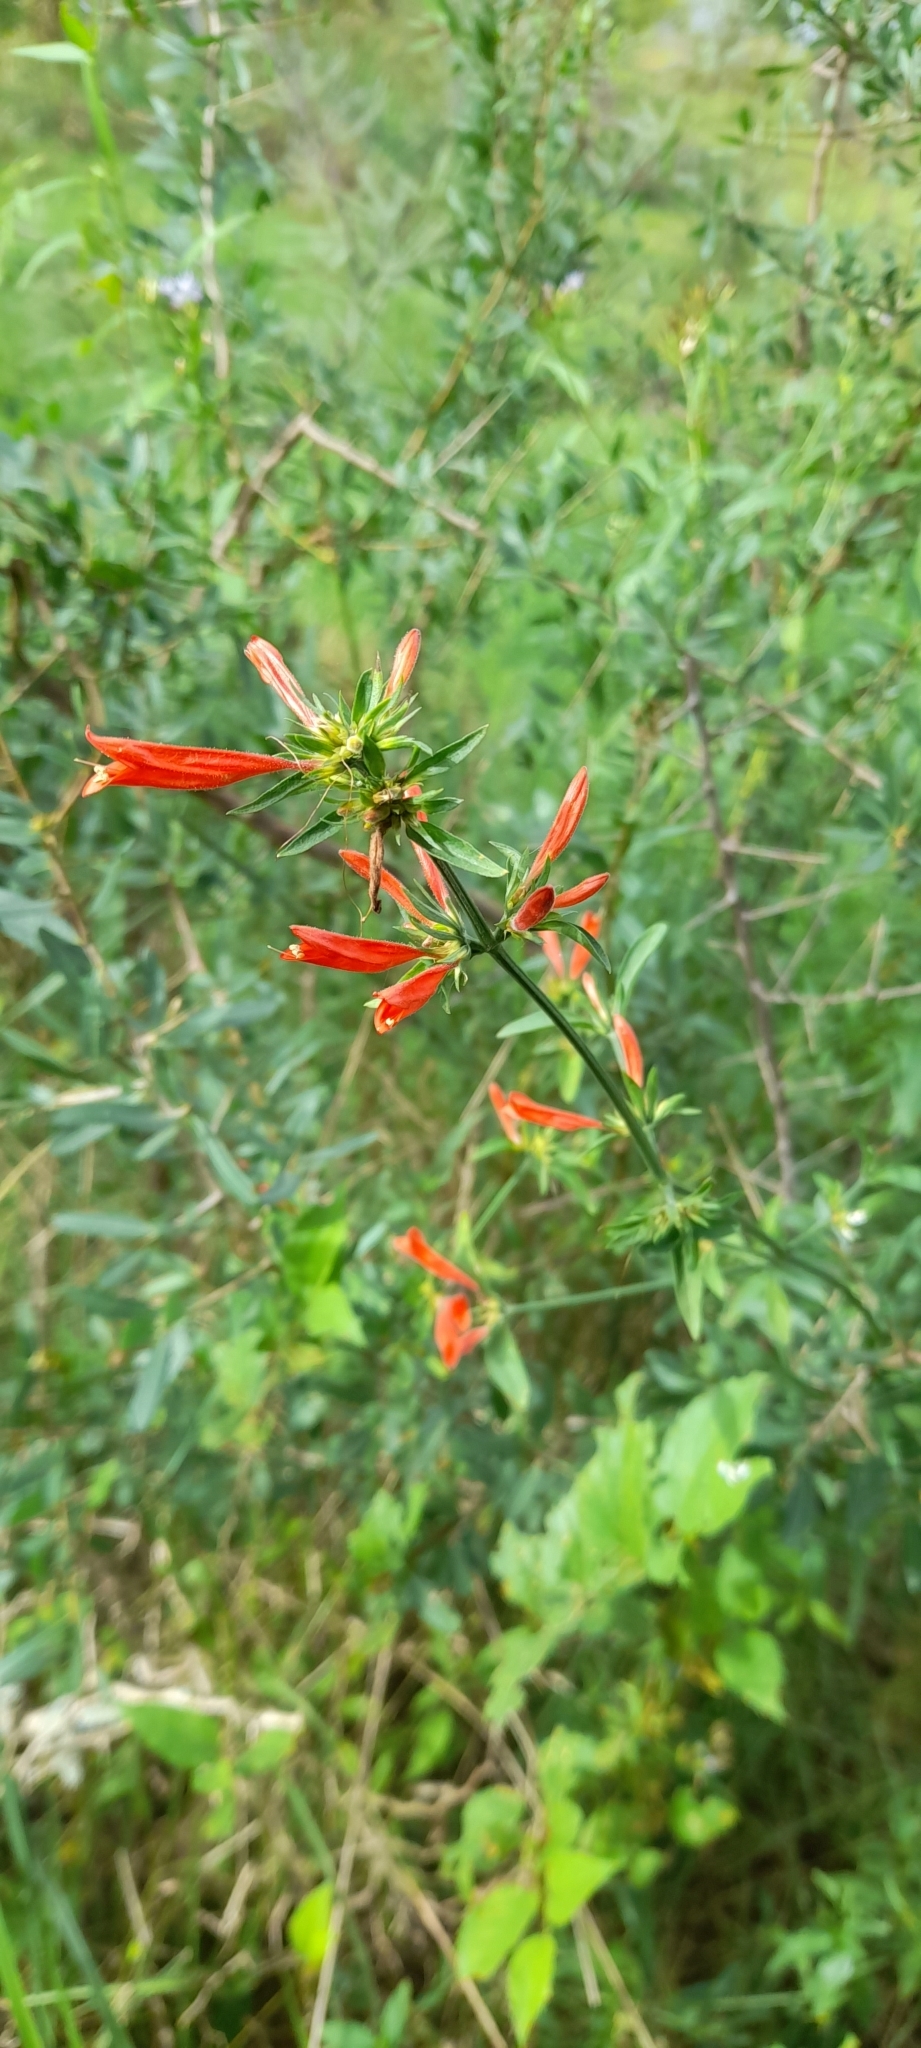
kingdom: Plantae
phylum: Tracheophyta
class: Magnoliopsida
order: Lamiales
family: Acanthaceae
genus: Dicliptera
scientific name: Dicliptera squarrosa
